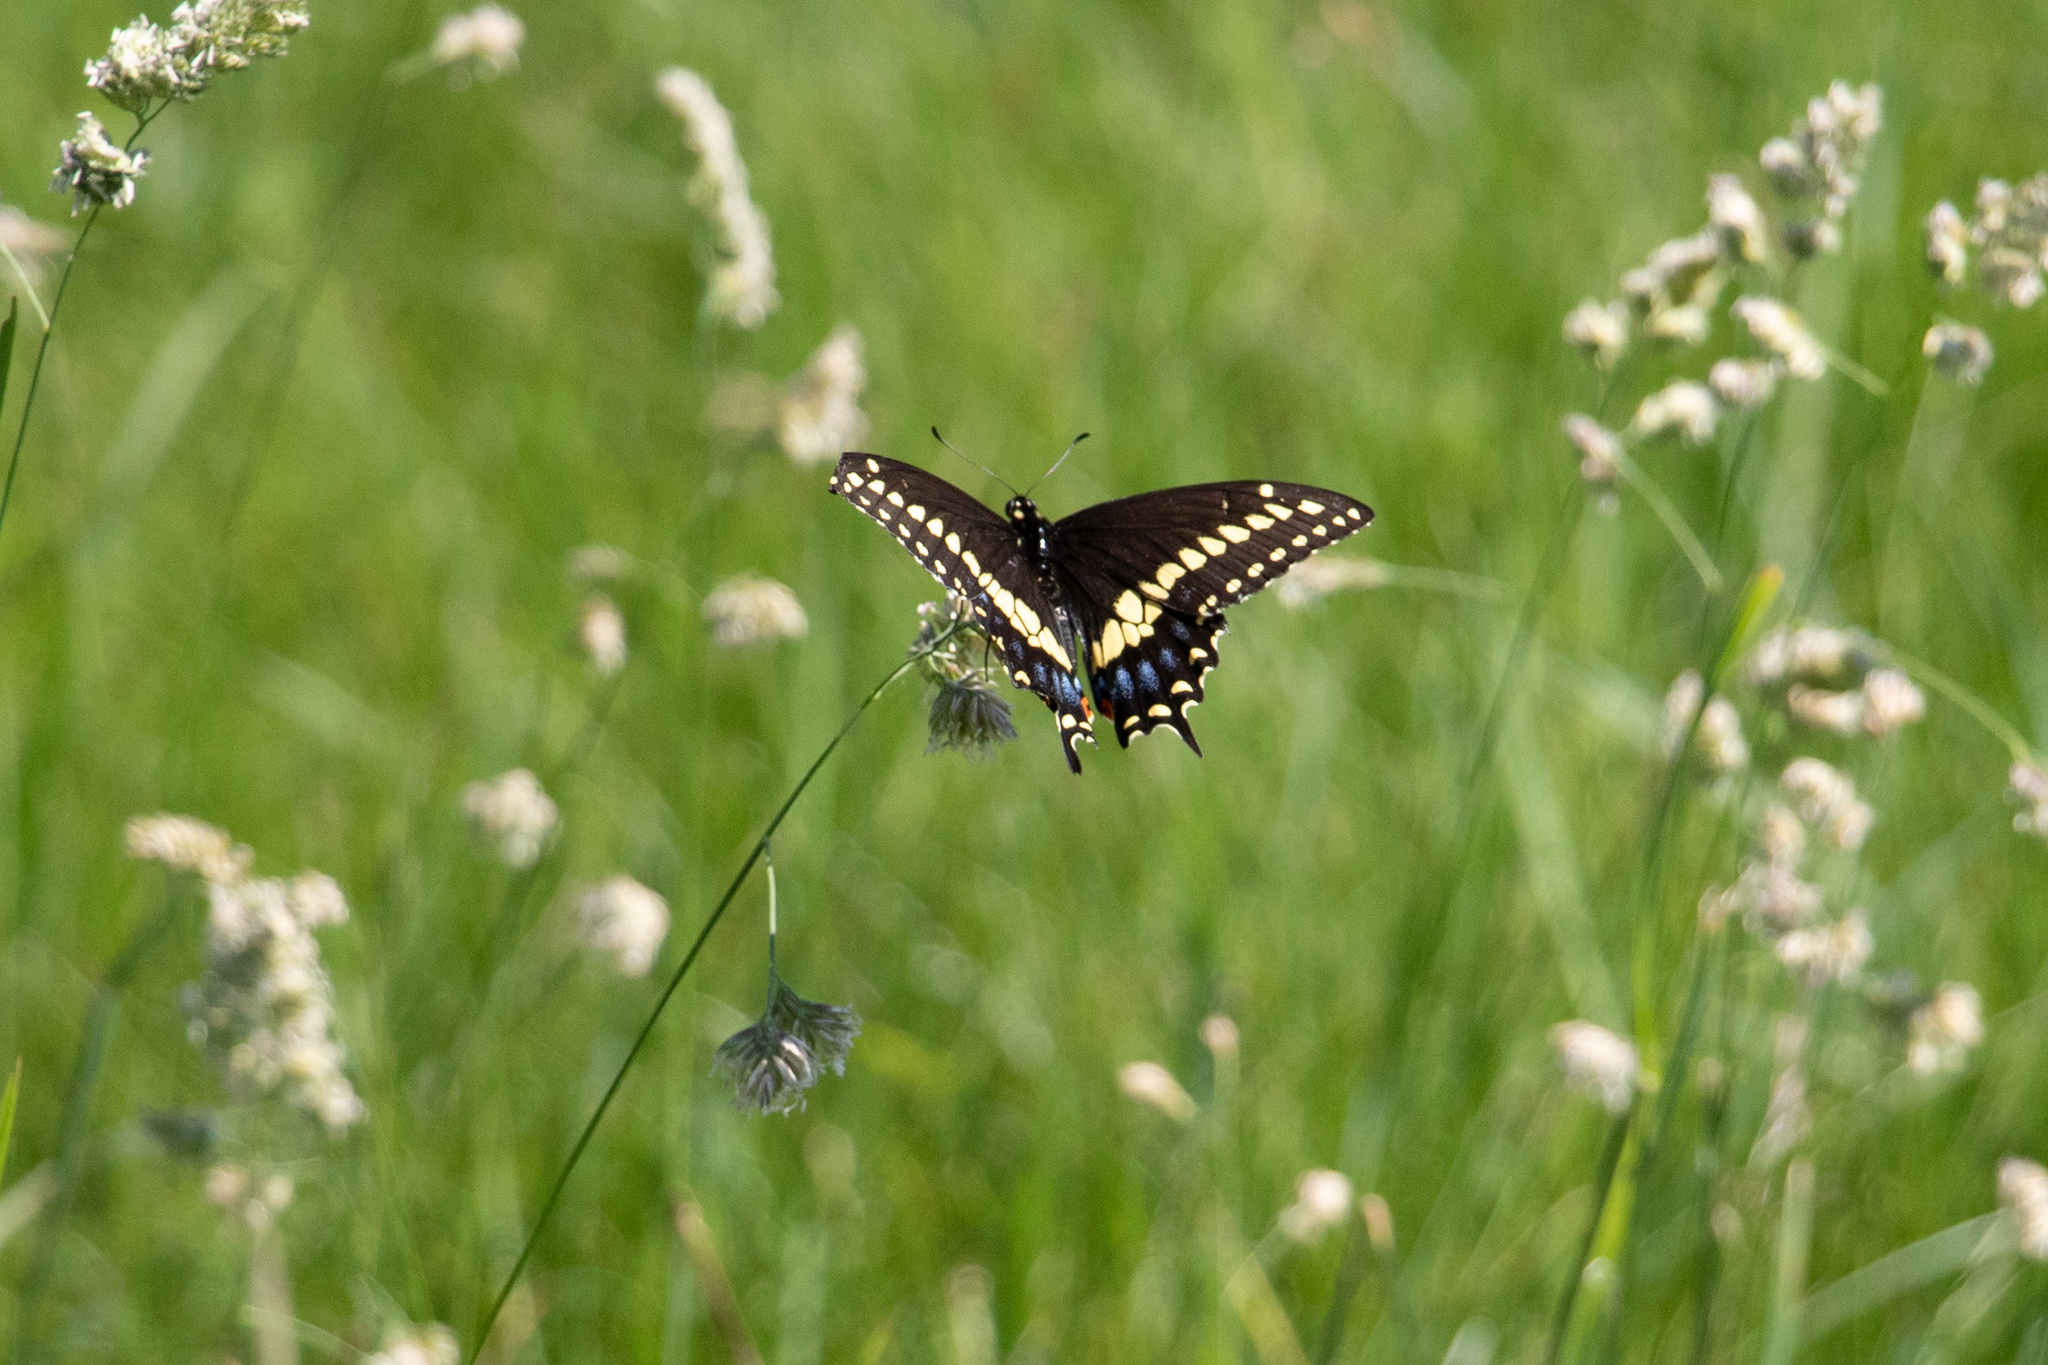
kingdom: Animalia
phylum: Arthropoda
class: Insecta
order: Lepidoptera
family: Papilionidae
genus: Papilio
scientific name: Papilio polyxenes
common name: Black swallowtail
